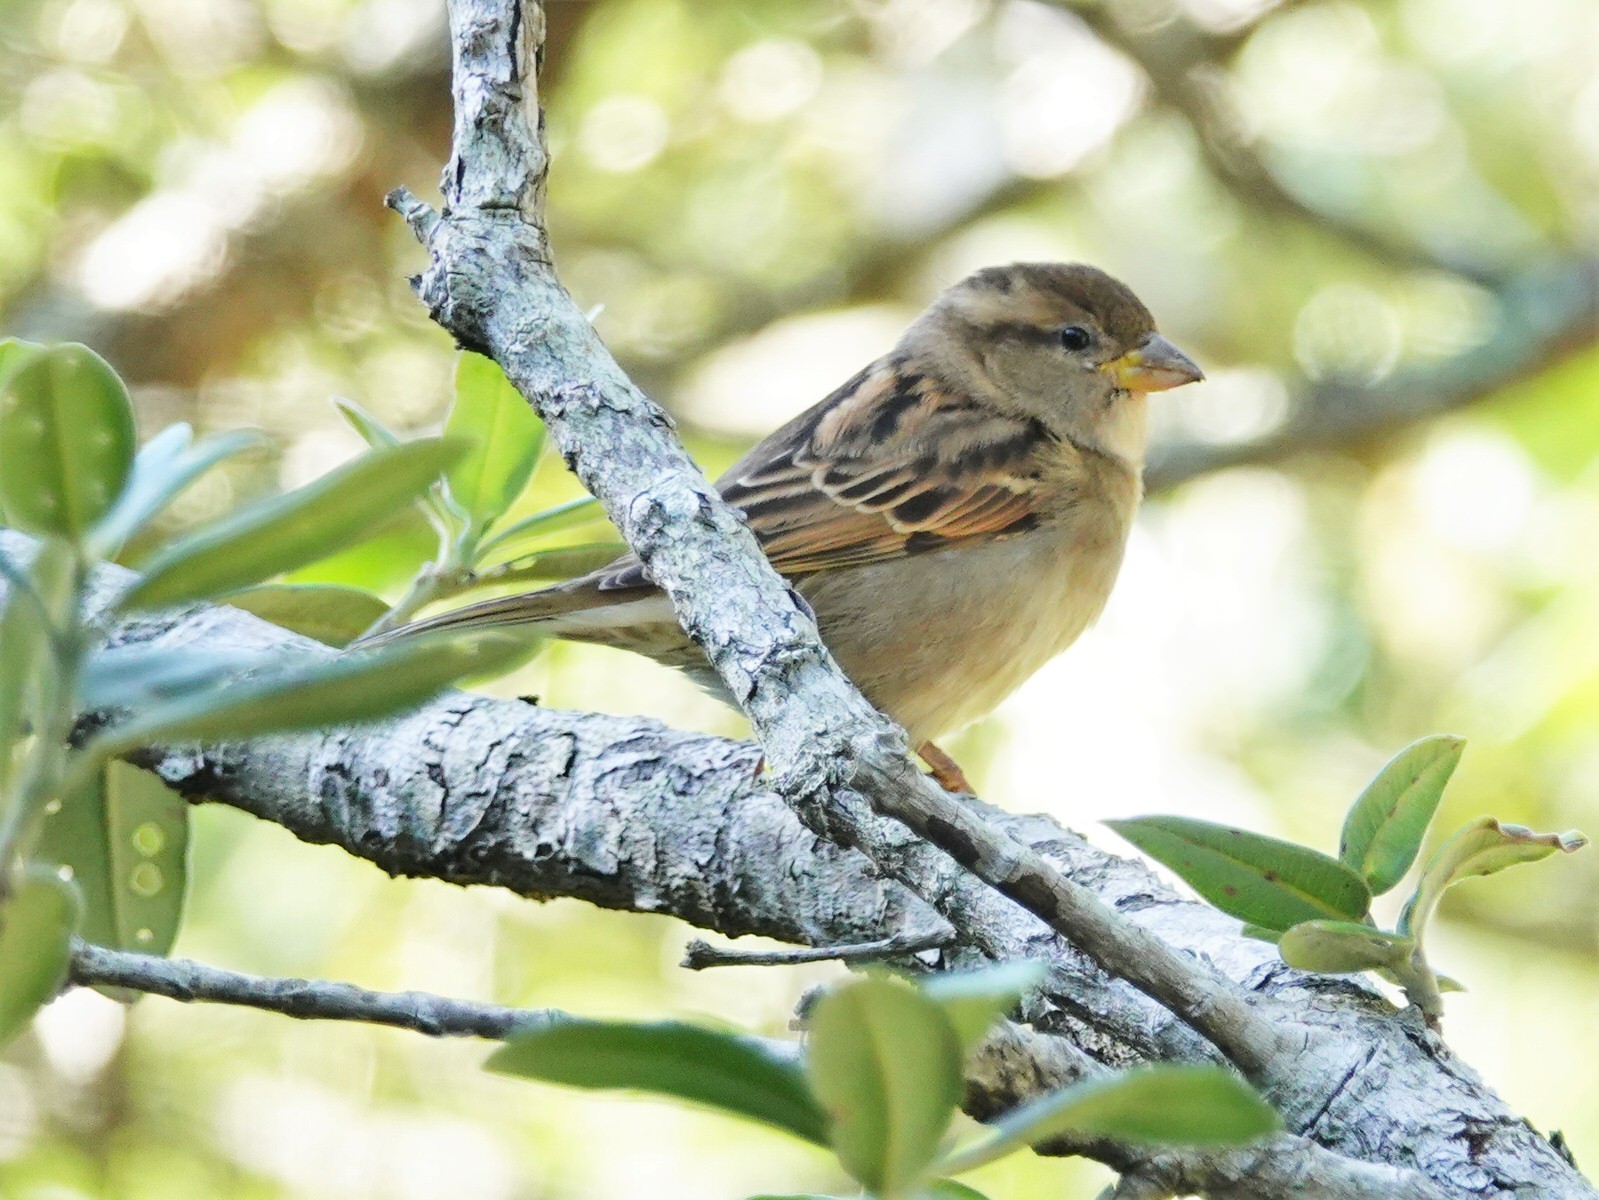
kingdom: Animalia
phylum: Chordata
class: Aves
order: Passeriformes
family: Passeridae
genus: Passer
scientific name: Passer domesticus
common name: House sparrow
